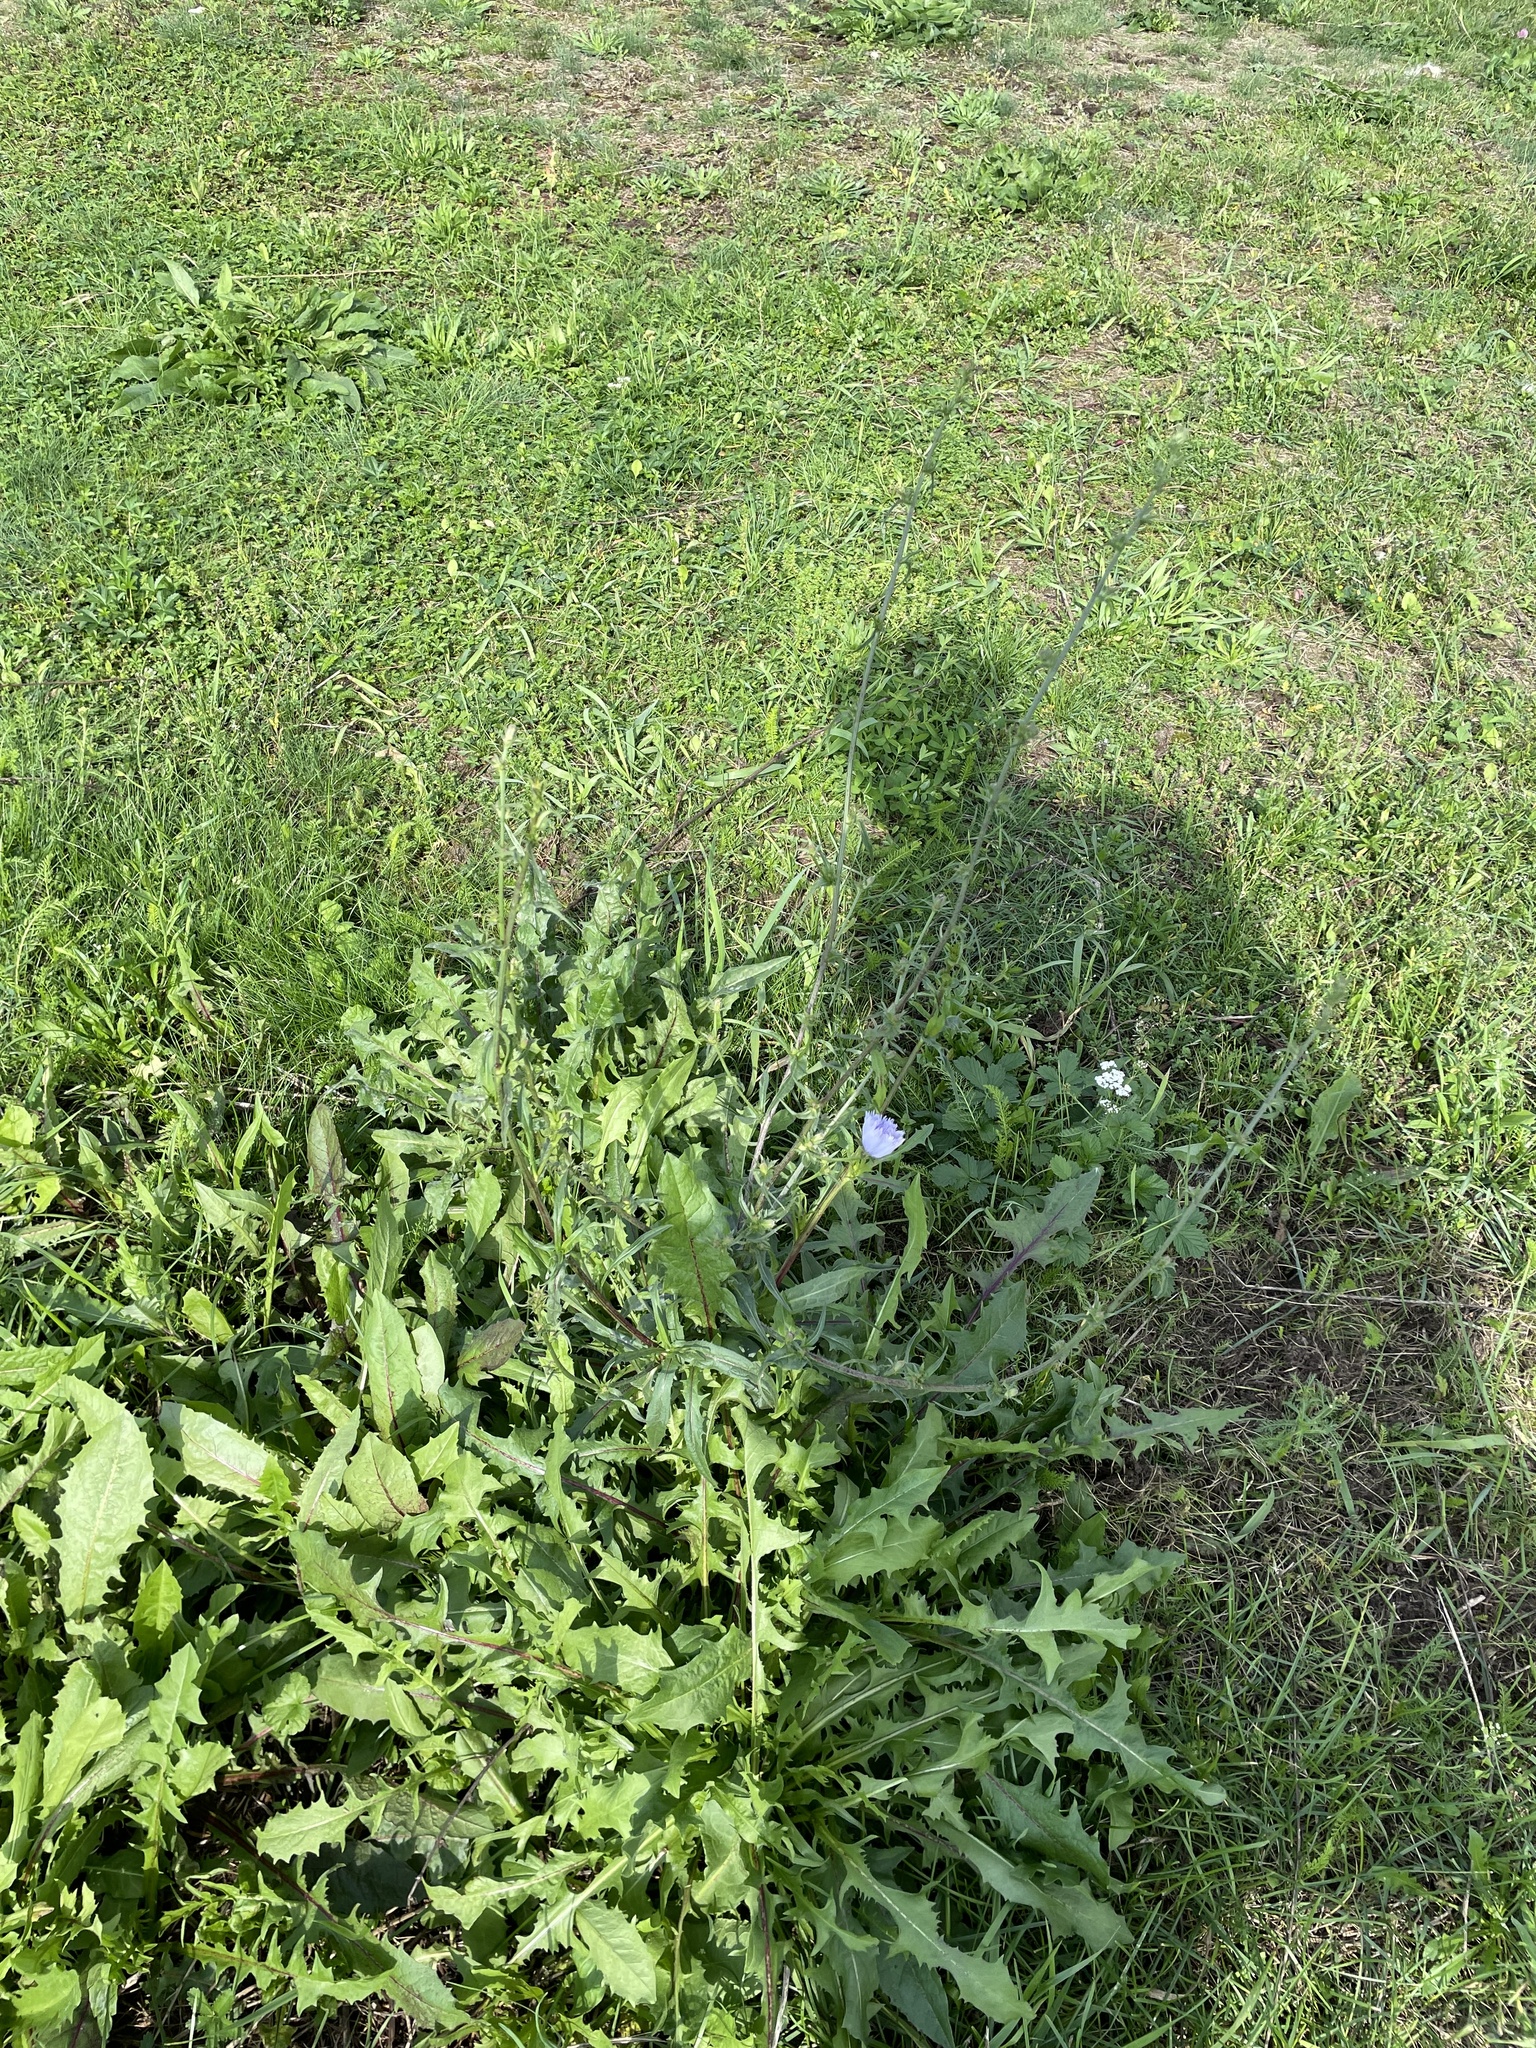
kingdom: Plantae
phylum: Tracheophyta
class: Magnoliopsida
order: Asterales
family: Asteraceae
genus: Cichorium
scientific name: Cichorium intybus
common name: Chicory
